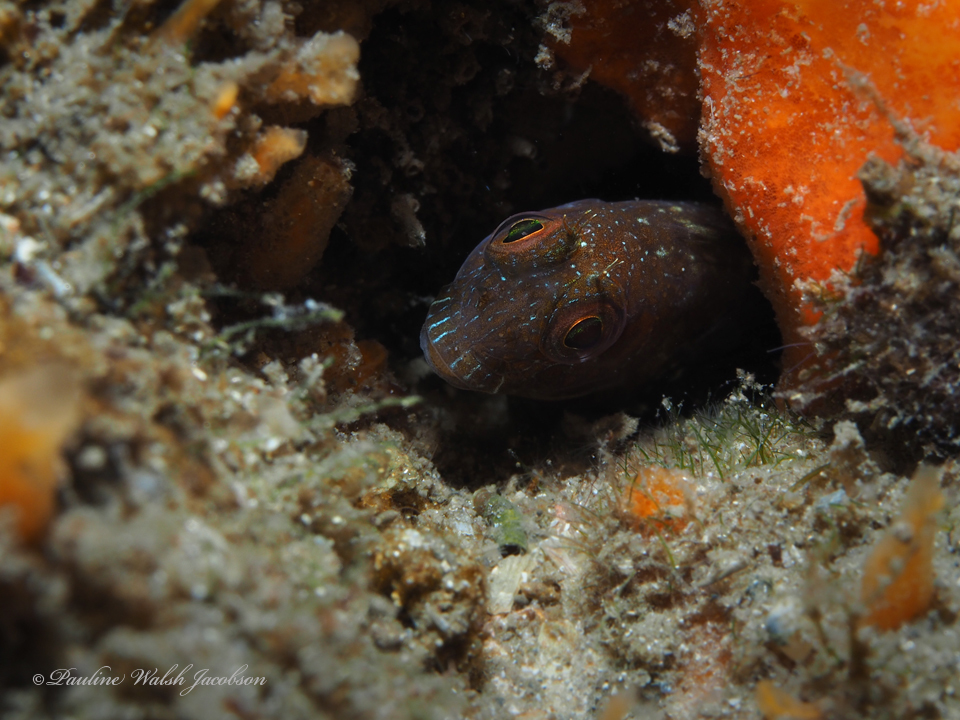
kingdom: Animalia
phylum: Chordata
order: Perciformes
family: Blenniidae
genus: Parablennius
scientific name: Parablennius marmoreus
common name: Seaweed blenny
